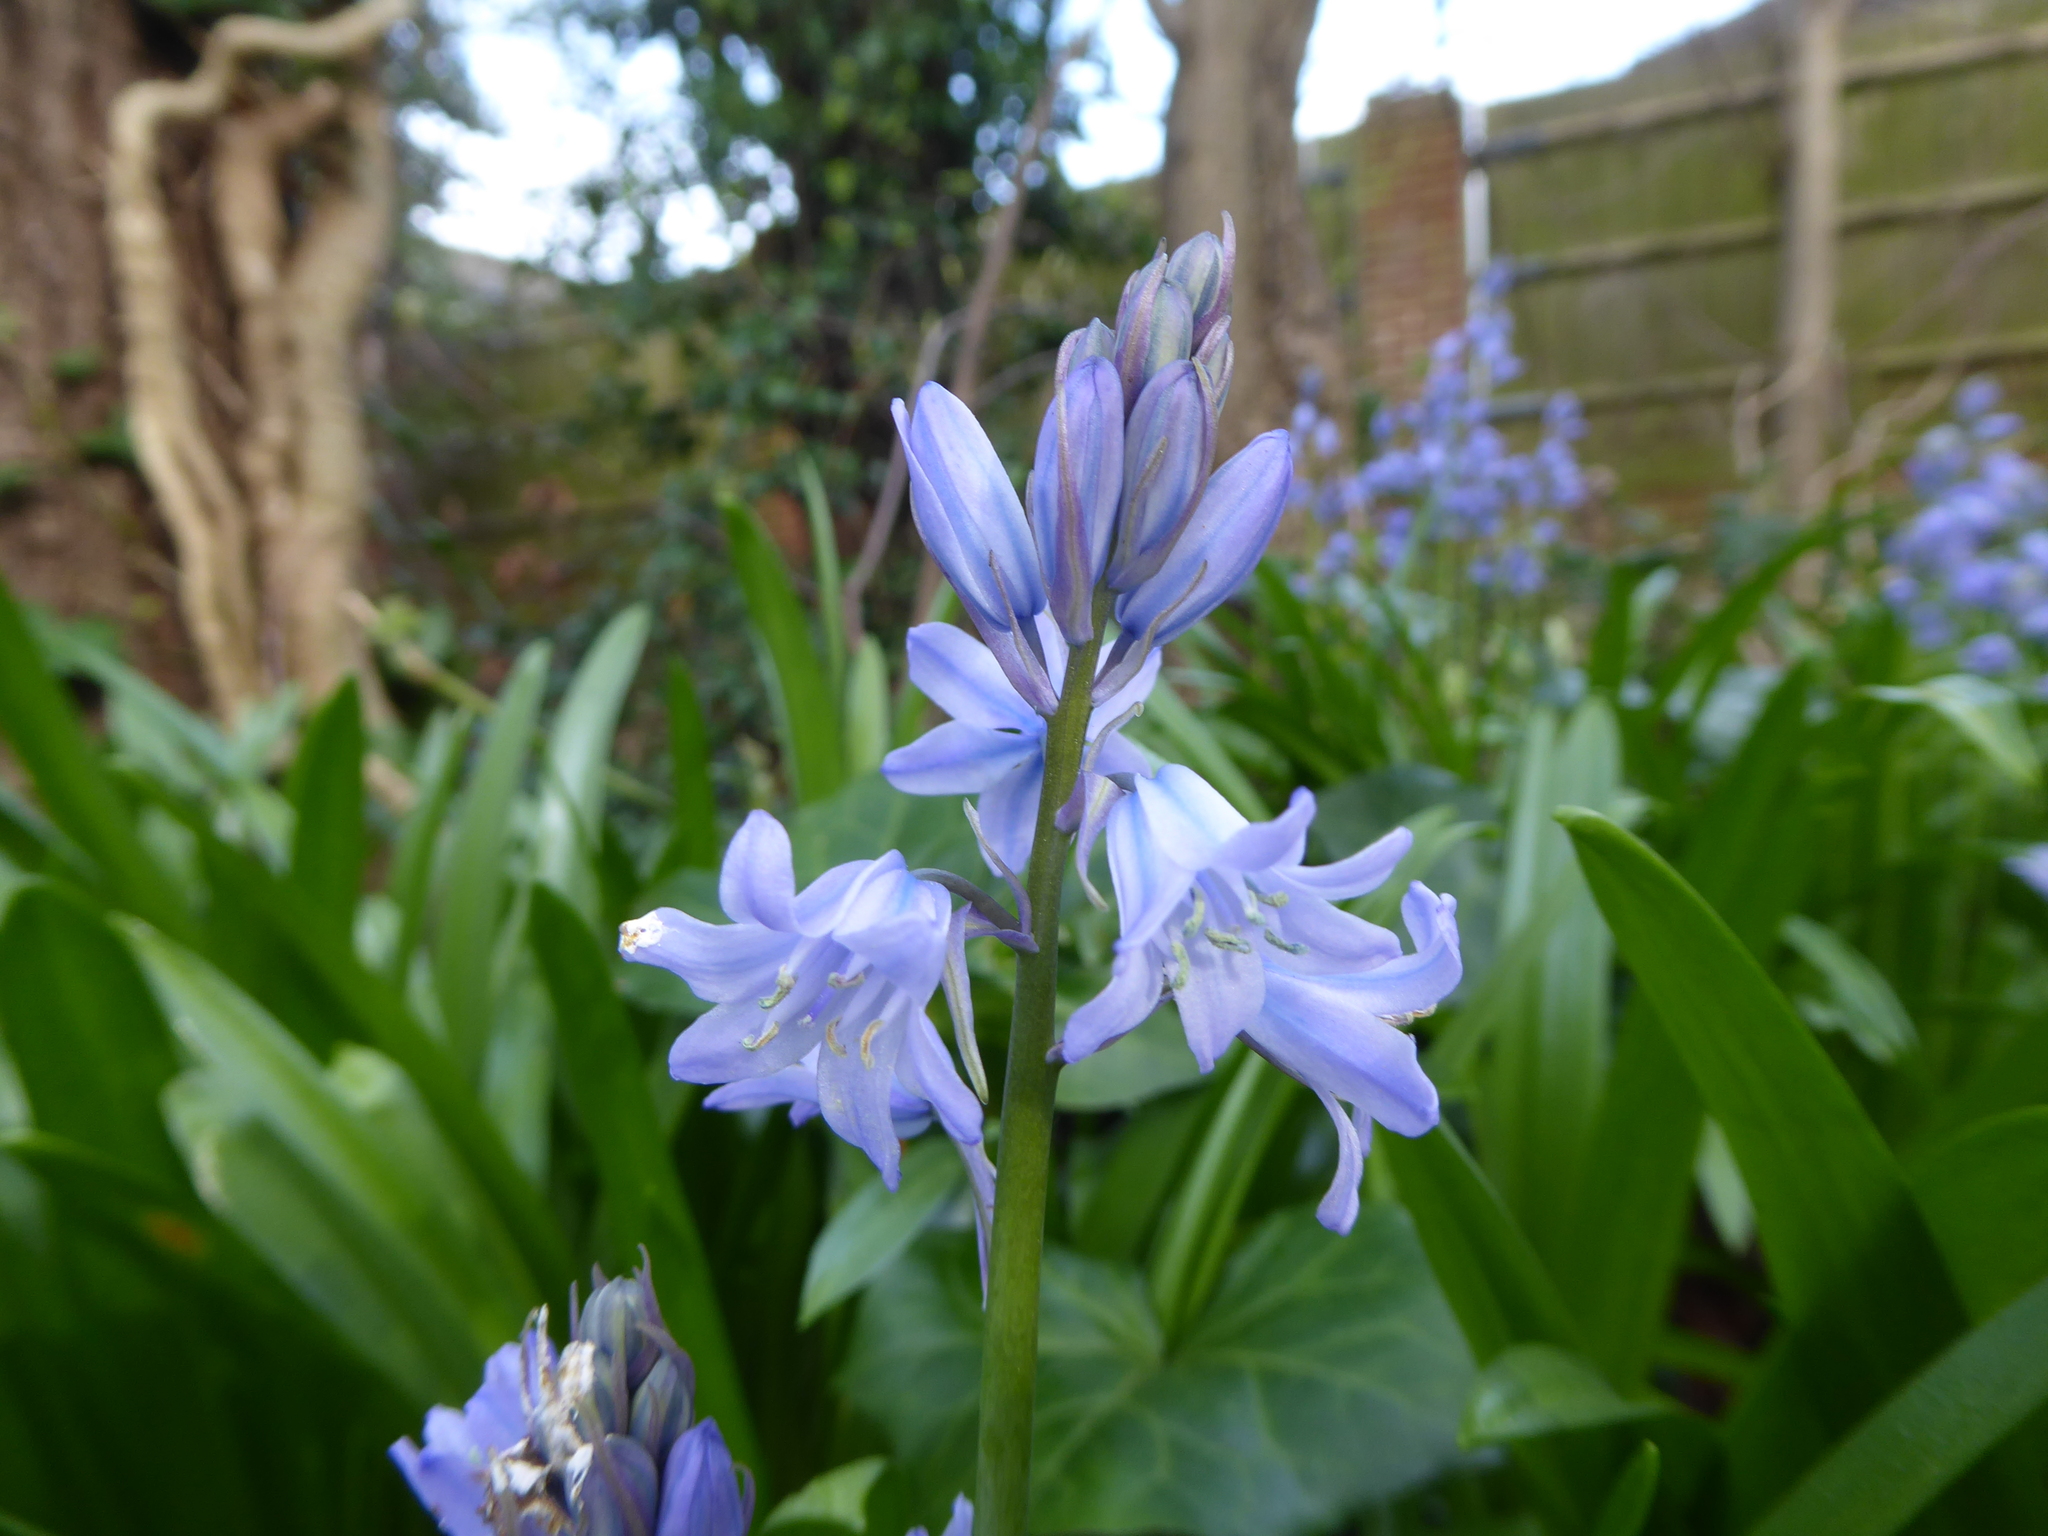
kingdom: Plantae
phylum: Tracheophyta
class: Liliopsida
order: Asparagales
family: Asparagaceae
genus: Hyacinthoides
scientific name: Hyacinthoides massartiana
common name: Hyacinthoides
